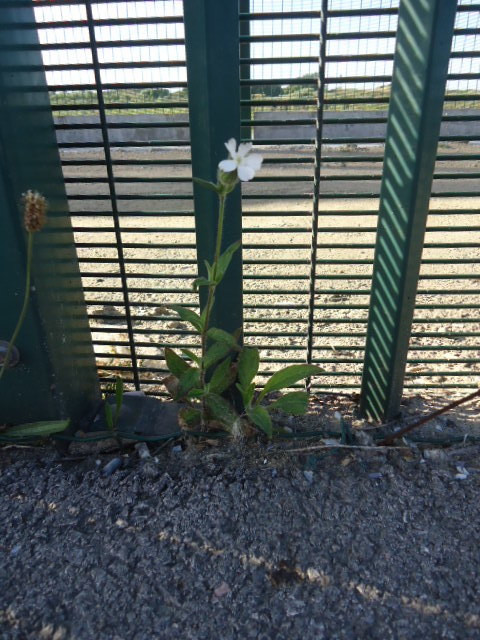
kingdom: Plantae
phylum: Tracheophyta
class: Magnoliopsida
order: Caryophyllales
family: Caryophyllaceae
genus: Silene
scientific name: Silene latifolia
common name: White campion
